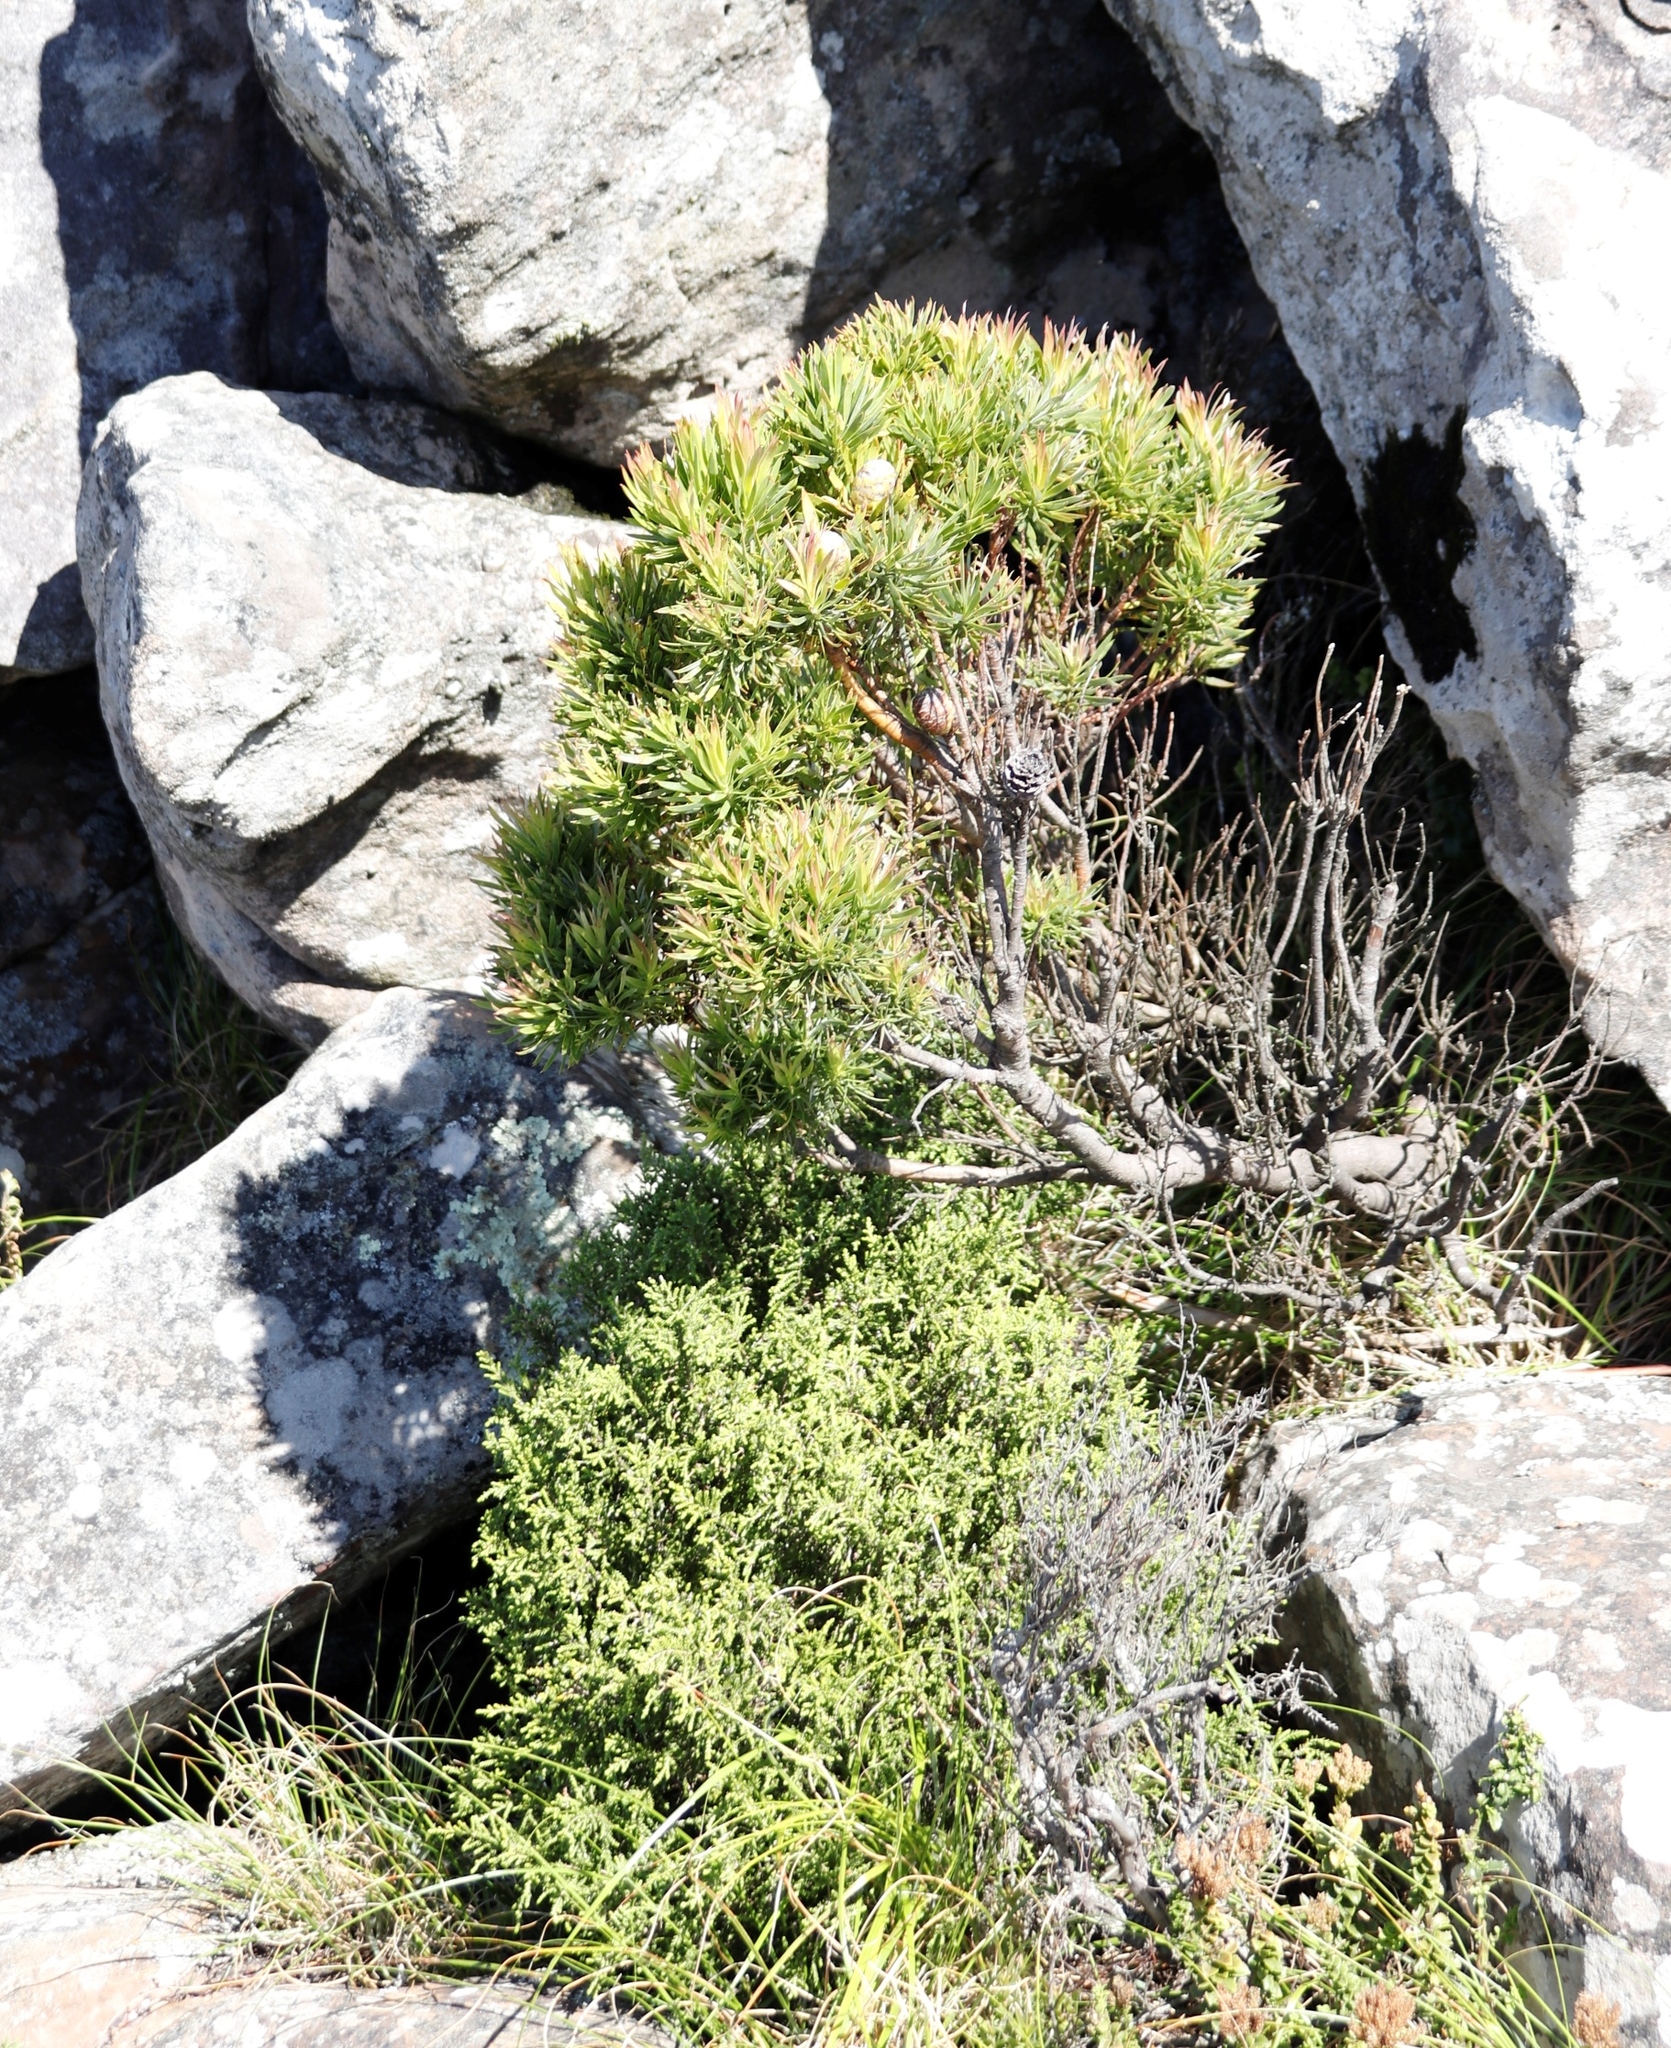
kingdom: Plantae
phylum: Tracheophyta
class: Magnoliopsida
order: Proteales
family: Proteaceae
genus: Leucadendron
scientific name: Leucadendron xanthoconus
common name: Sickle-leaf conebush
